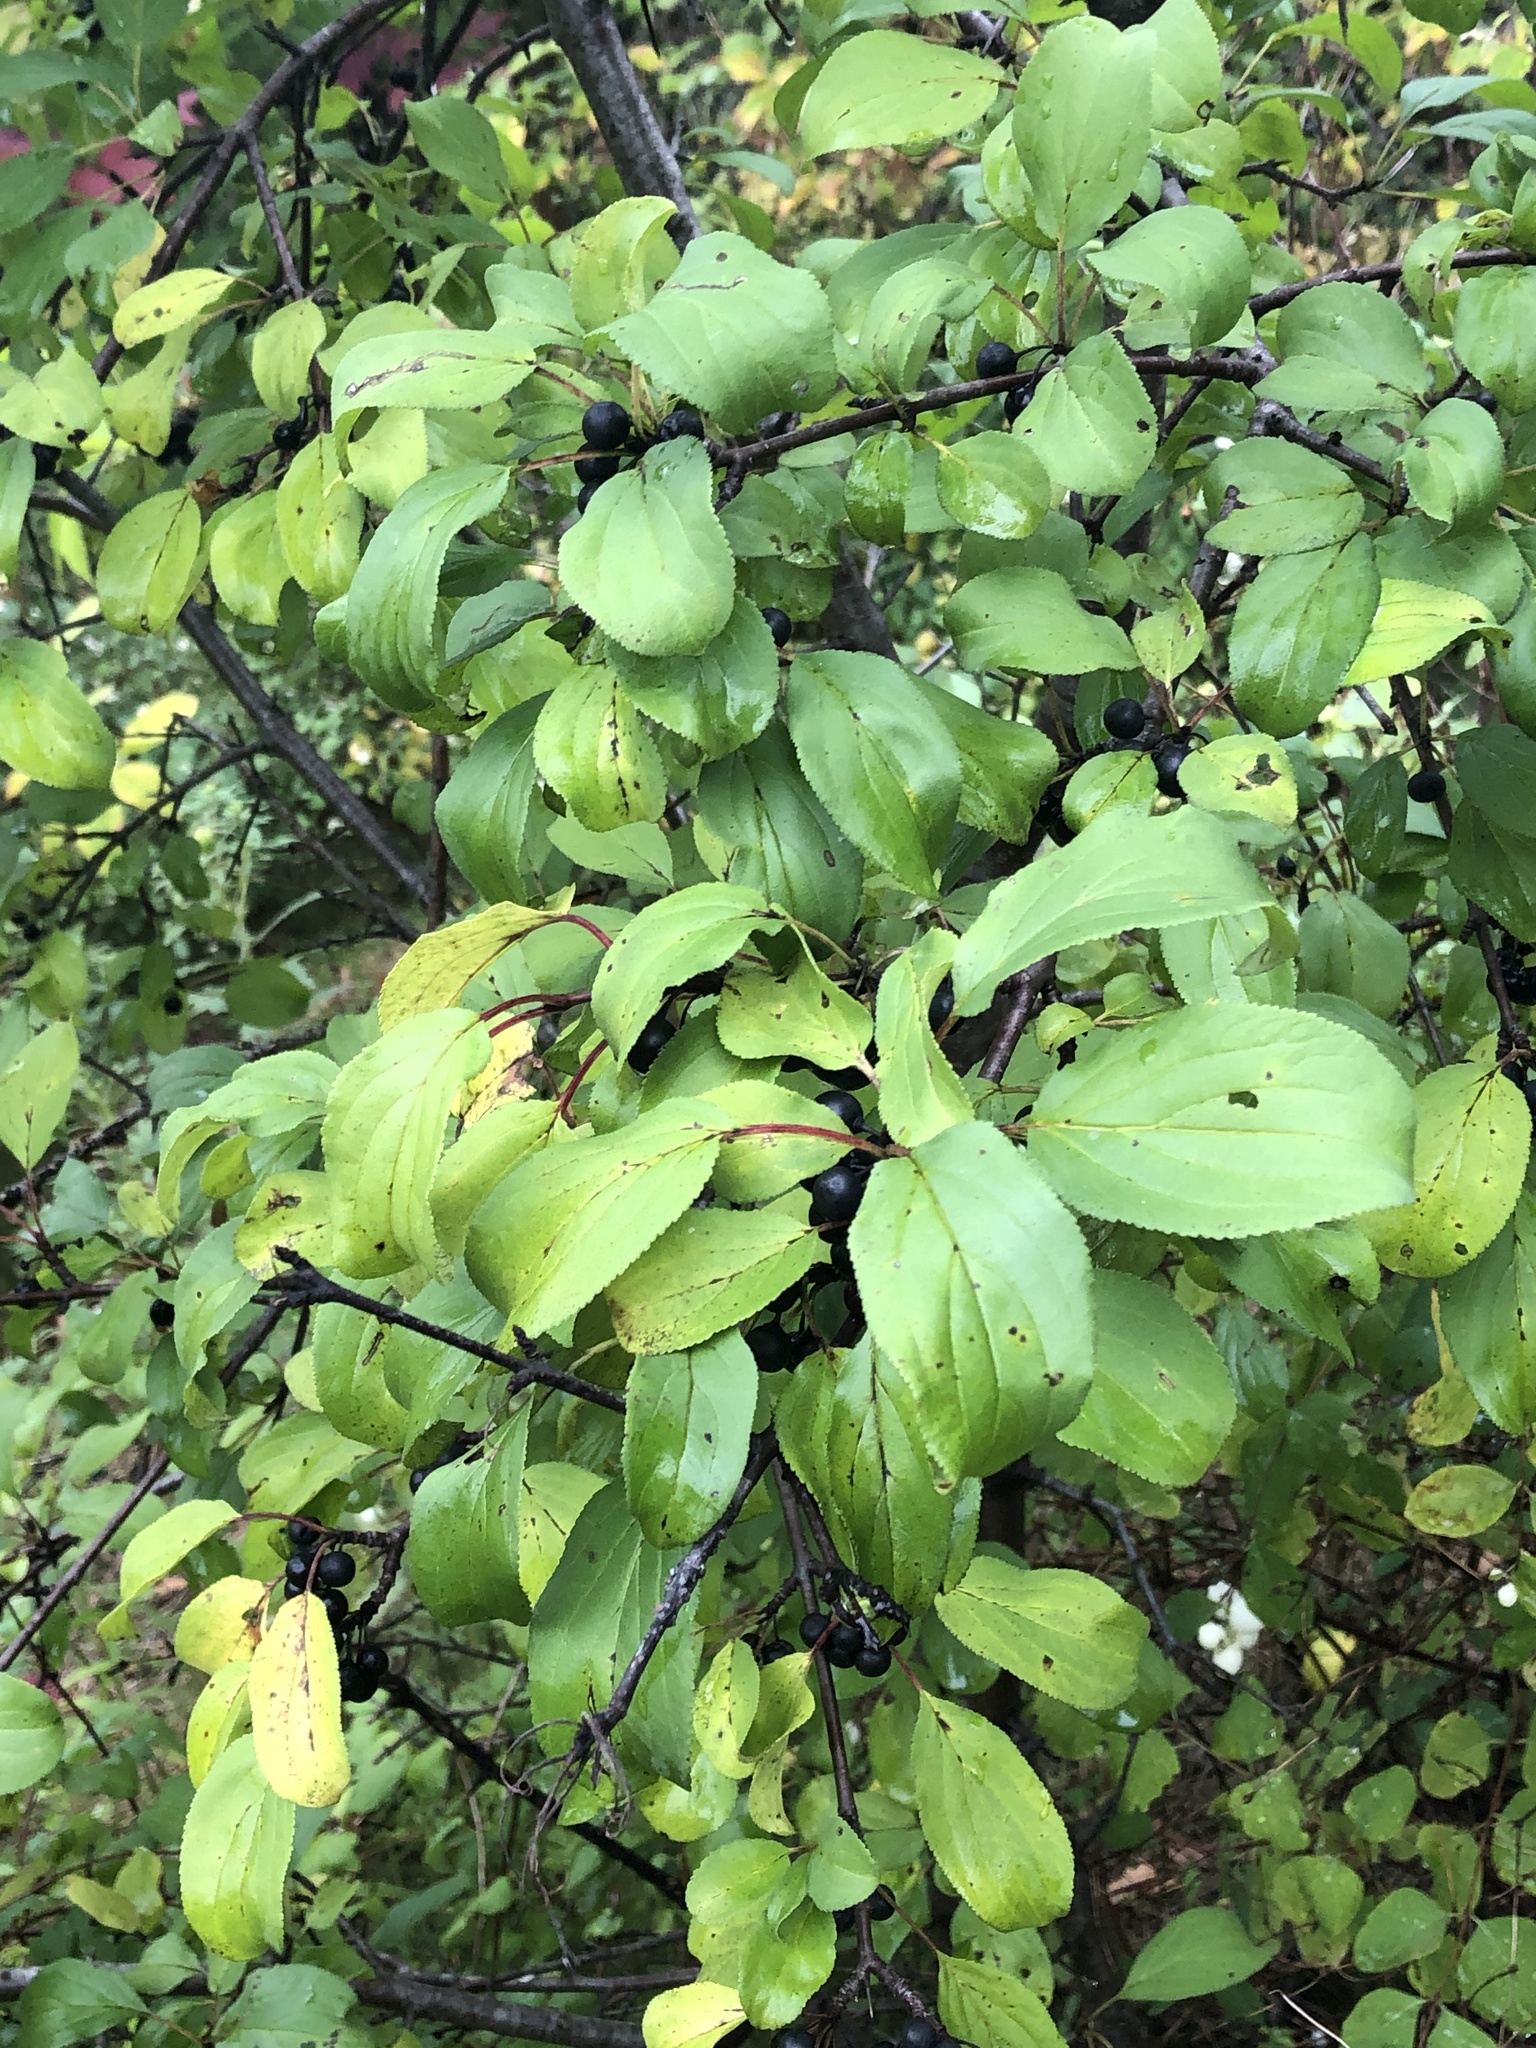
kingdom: Plantae
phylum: Tracheophyta
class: Magnoliopsida
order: Rosales
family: Rhamnaceae
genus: Rhamnus
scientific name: Rhamnus cathartica
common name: Common buckthorn
